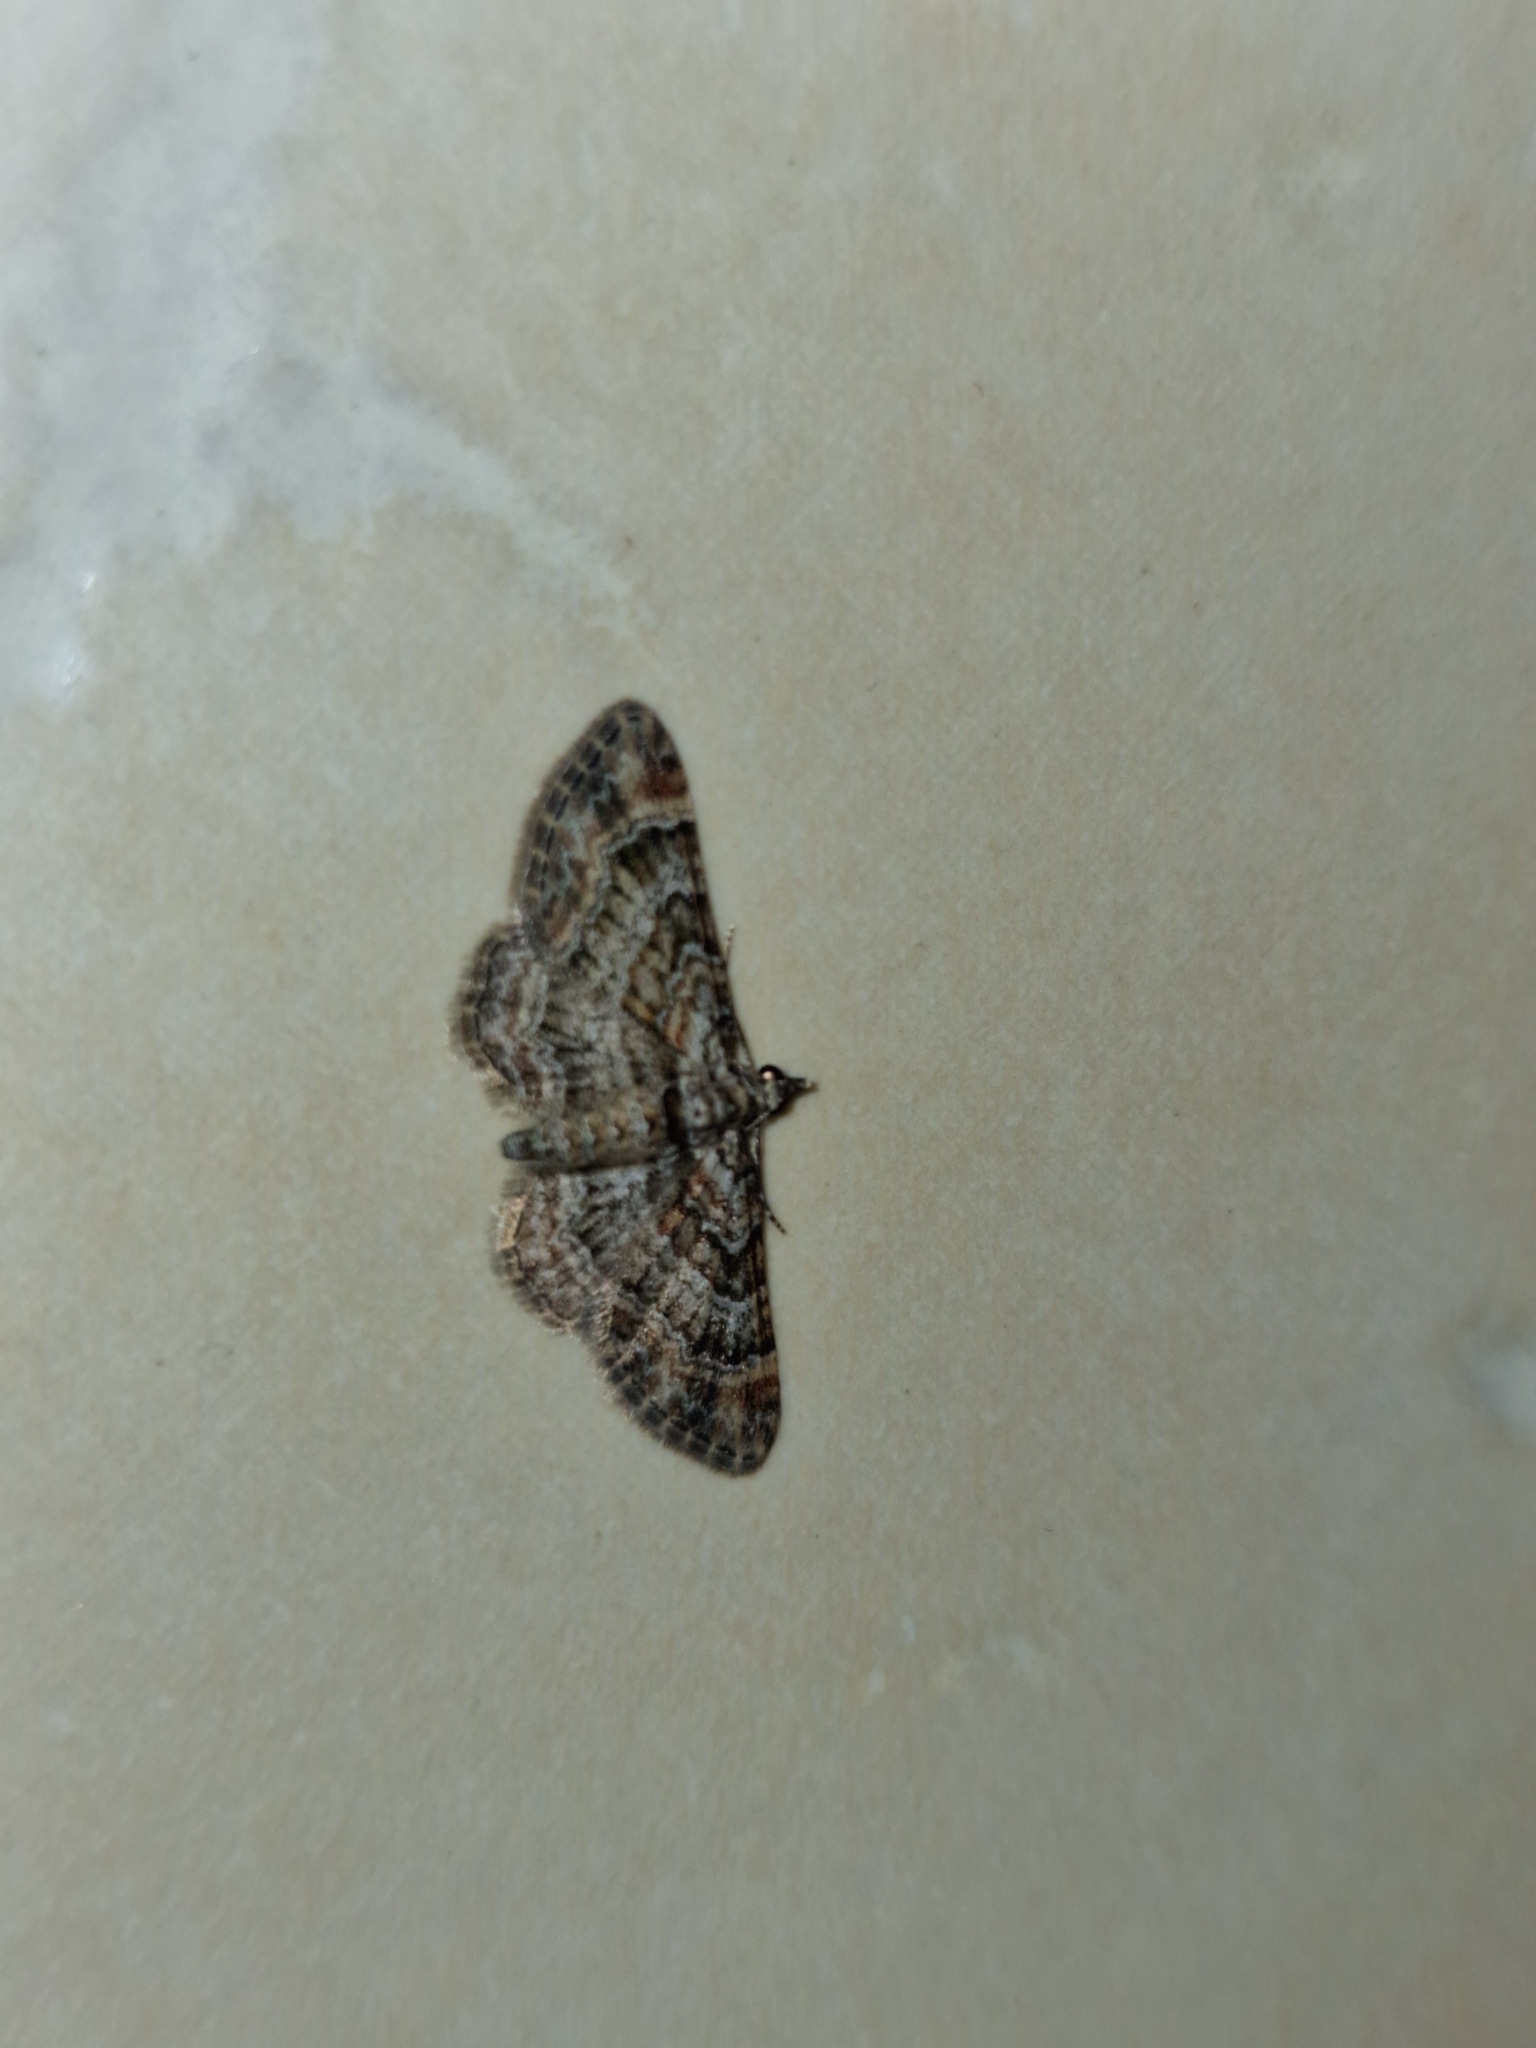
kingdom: Animalia
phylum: Arthropoda
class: Insecta
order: Lepidoptera
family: Geometridae
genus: Gymnoscelis
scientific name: Gymnoscelis rufifasciata
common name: Double-striped pug
